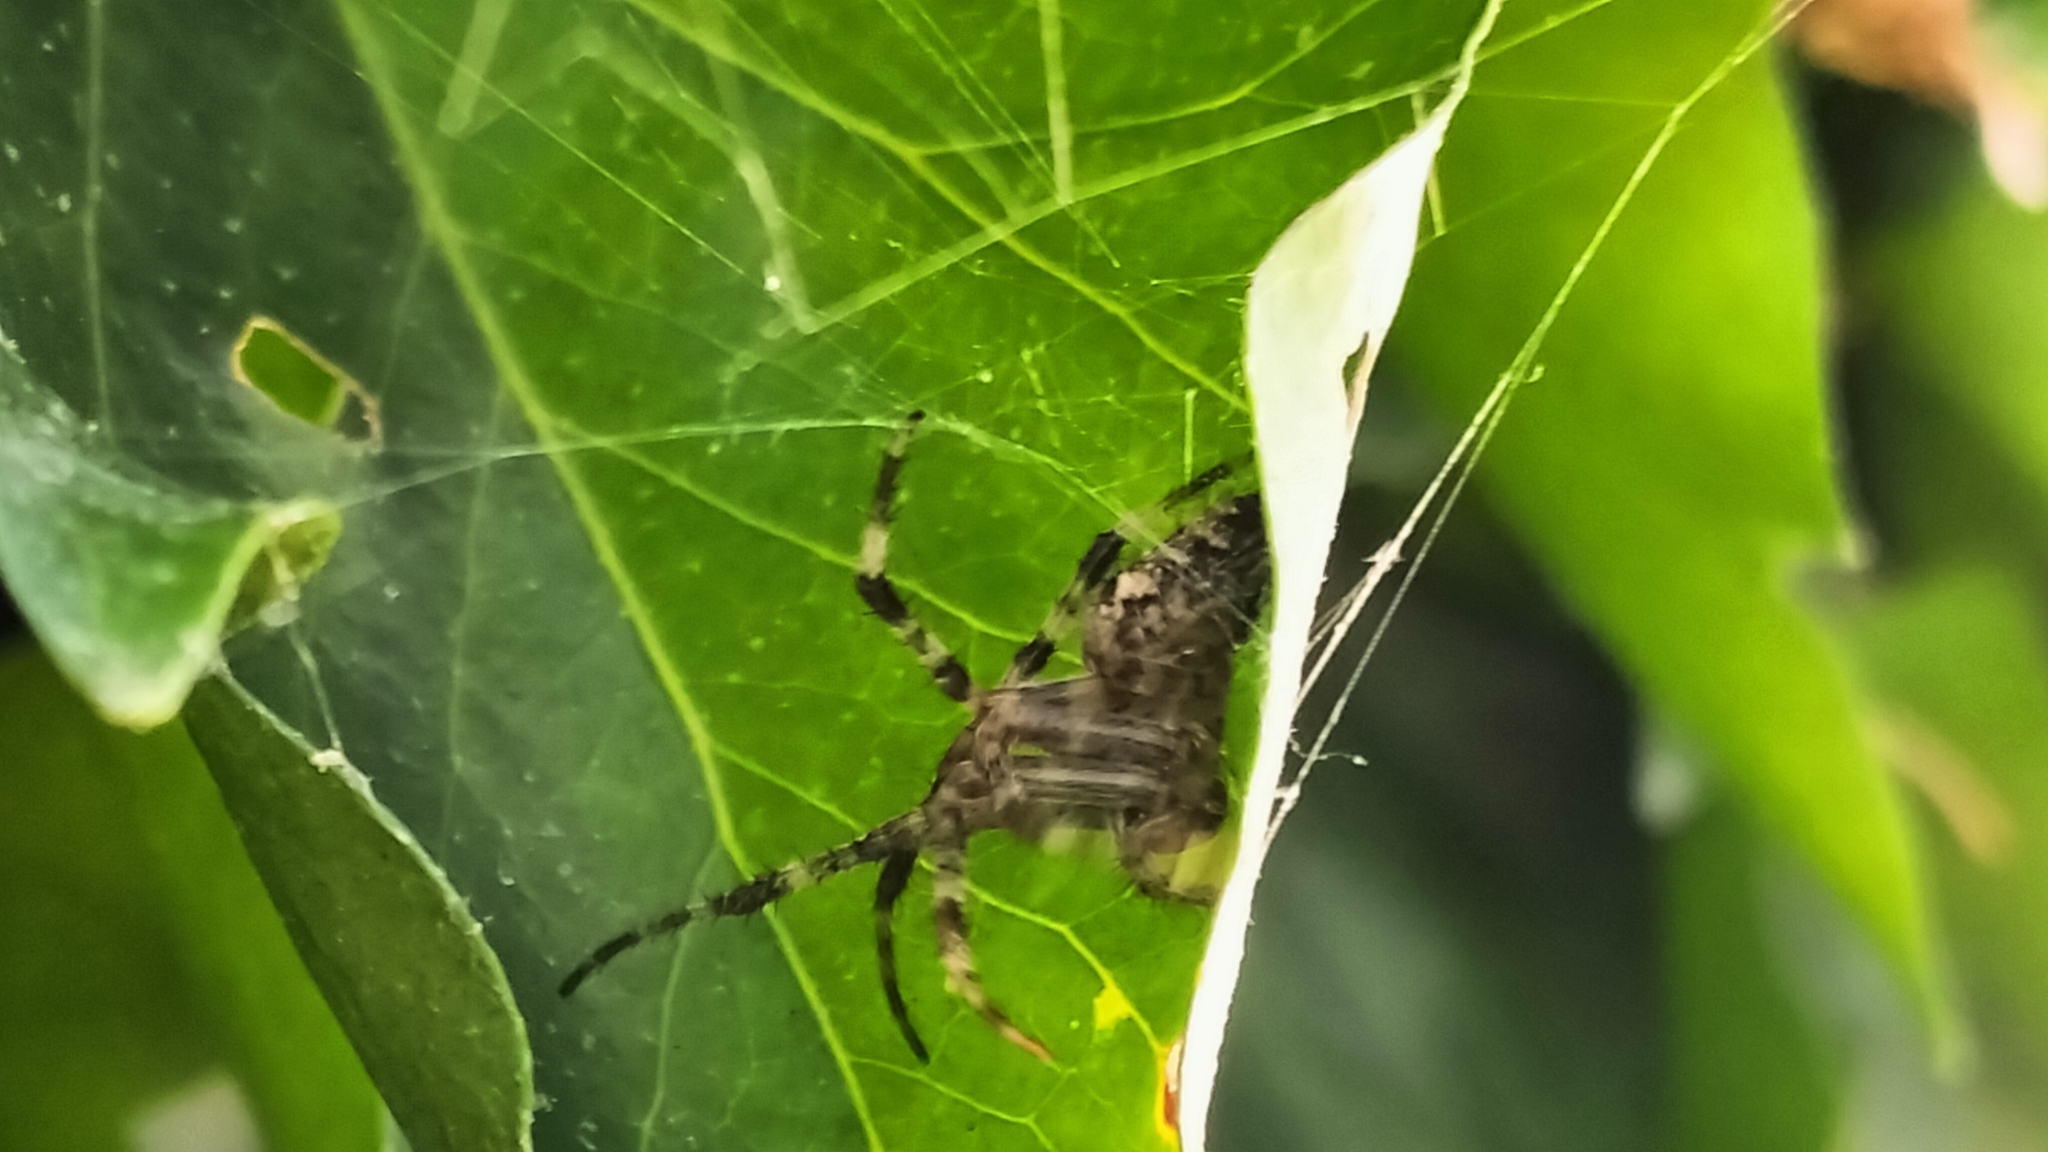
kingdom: Animalia
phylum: Arthropoda
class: Arachnida
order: Araneae
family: Araneidae
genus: Araneus
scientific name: Araneus diadematus
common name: Cross orbweaver
